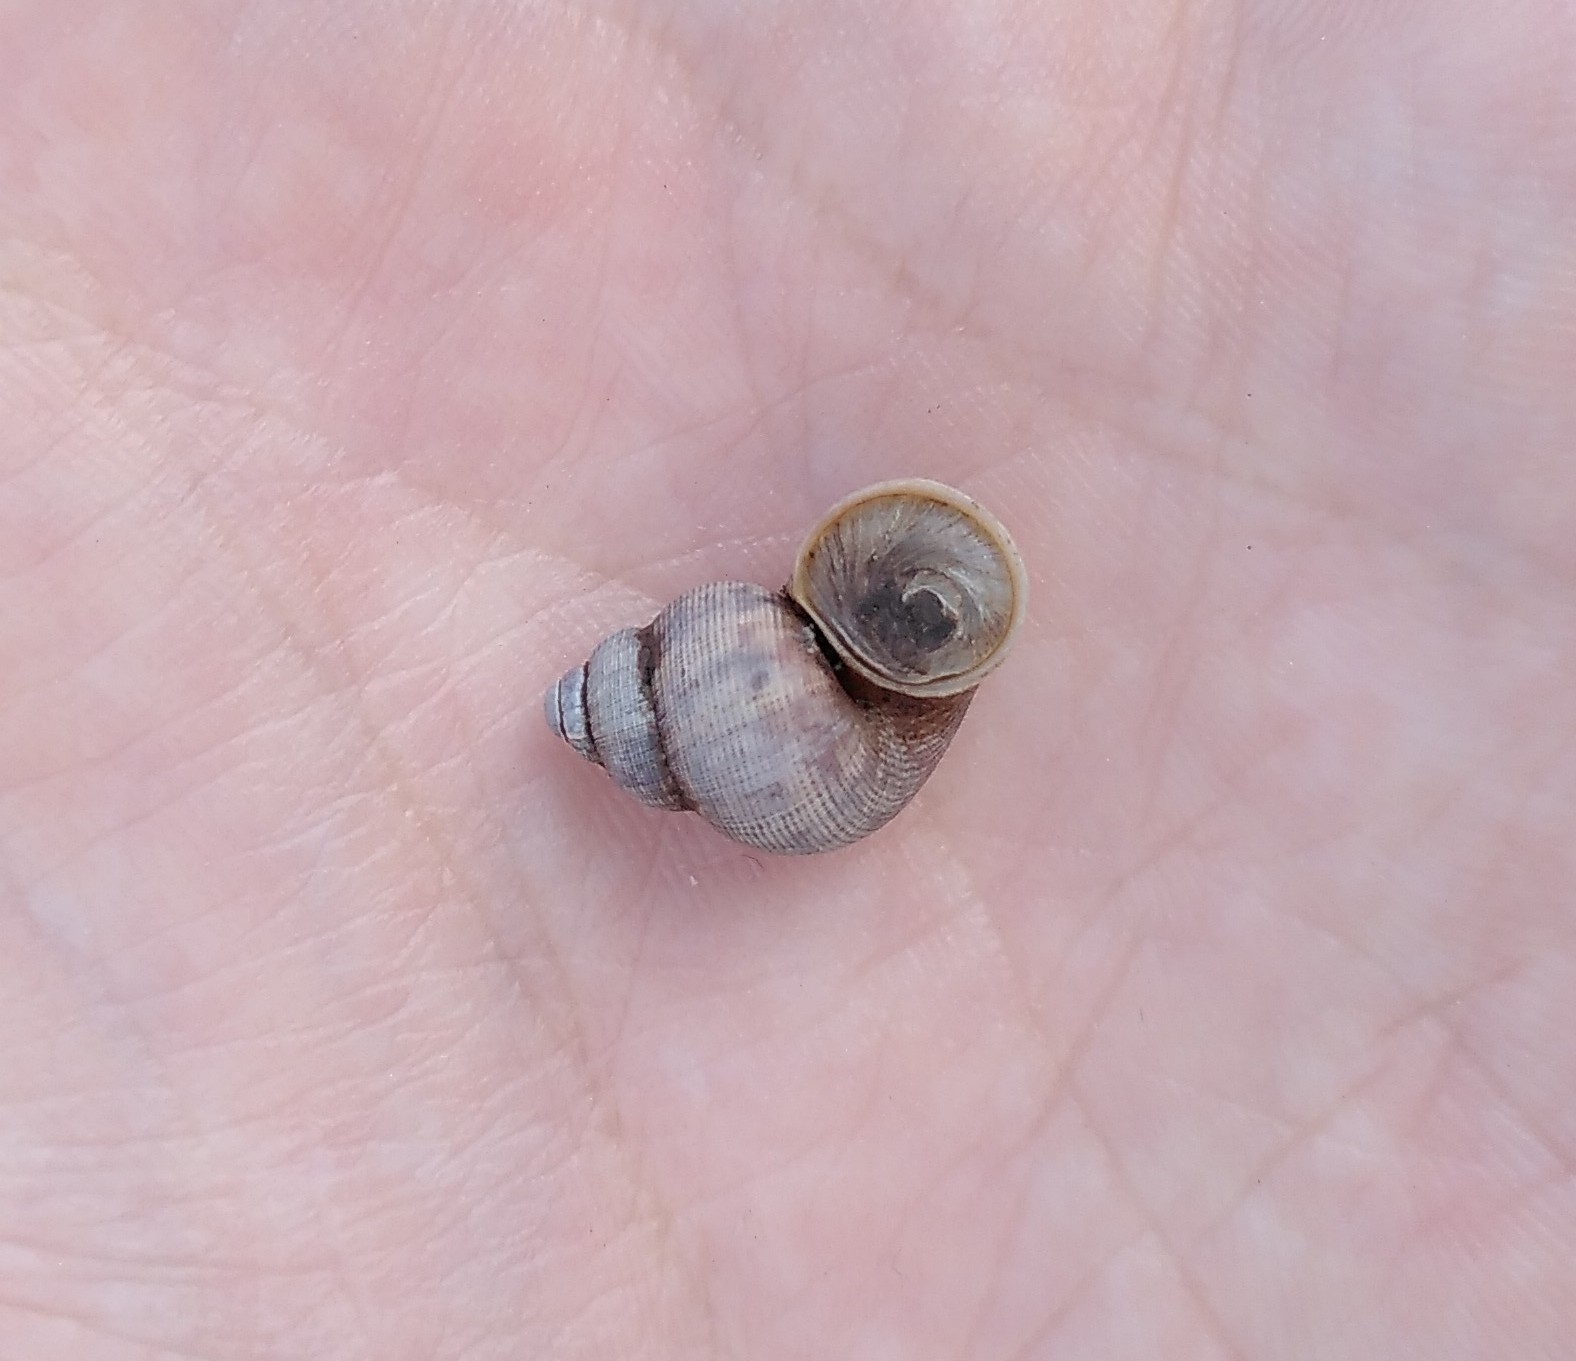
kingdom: Animalia
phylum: Mollusca
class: Gastropoda
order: Littorinimorpha
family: Pomatiidae
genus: Pomatias
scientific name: Pomatias elegans
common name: Red-mouthed snail
